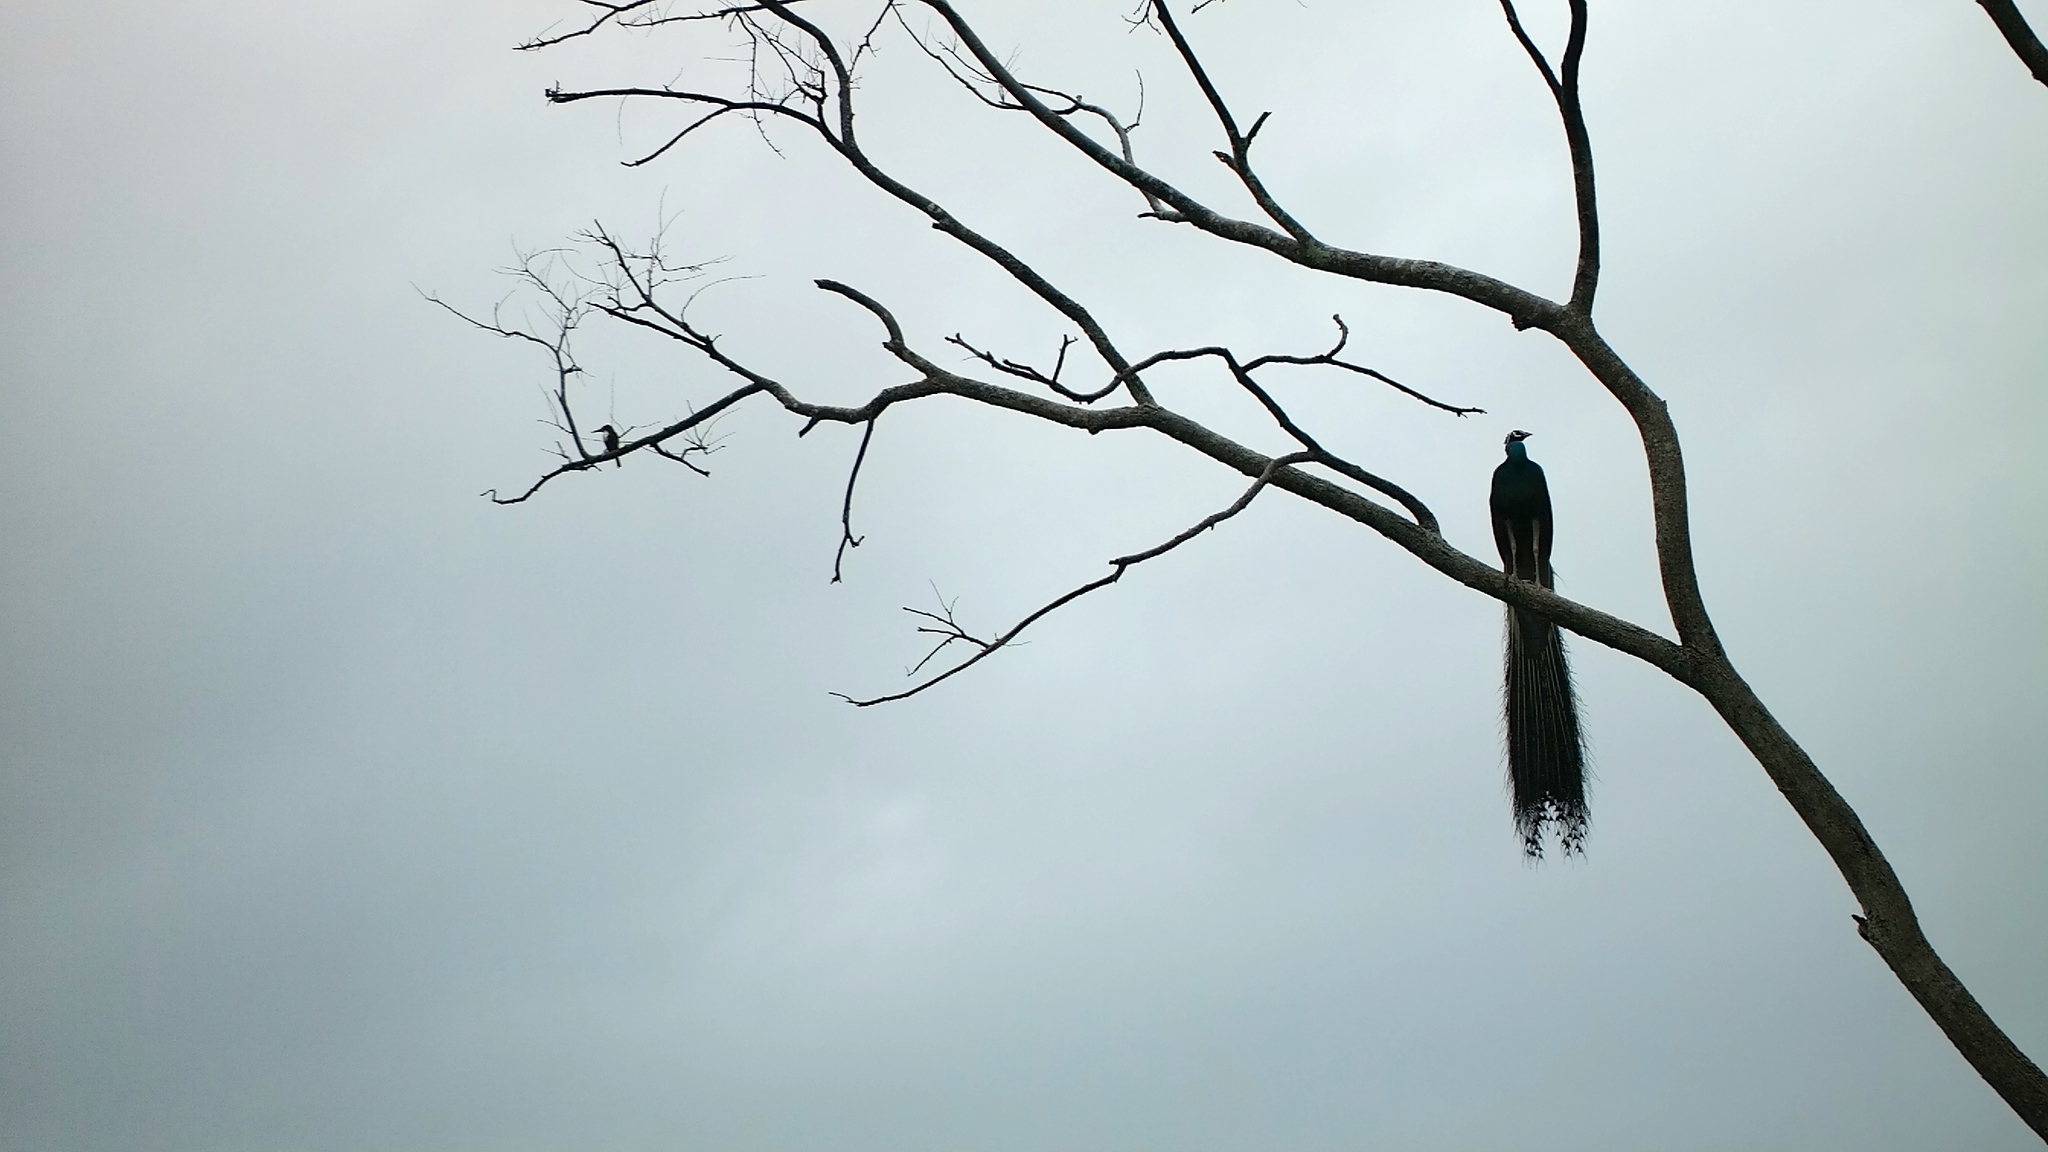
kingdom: Animalia
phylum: Chordata
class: Aves
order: Galliformes
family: Phasianidae
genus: Pavo
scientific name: Pavo cristatus
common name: Indian peafowl
